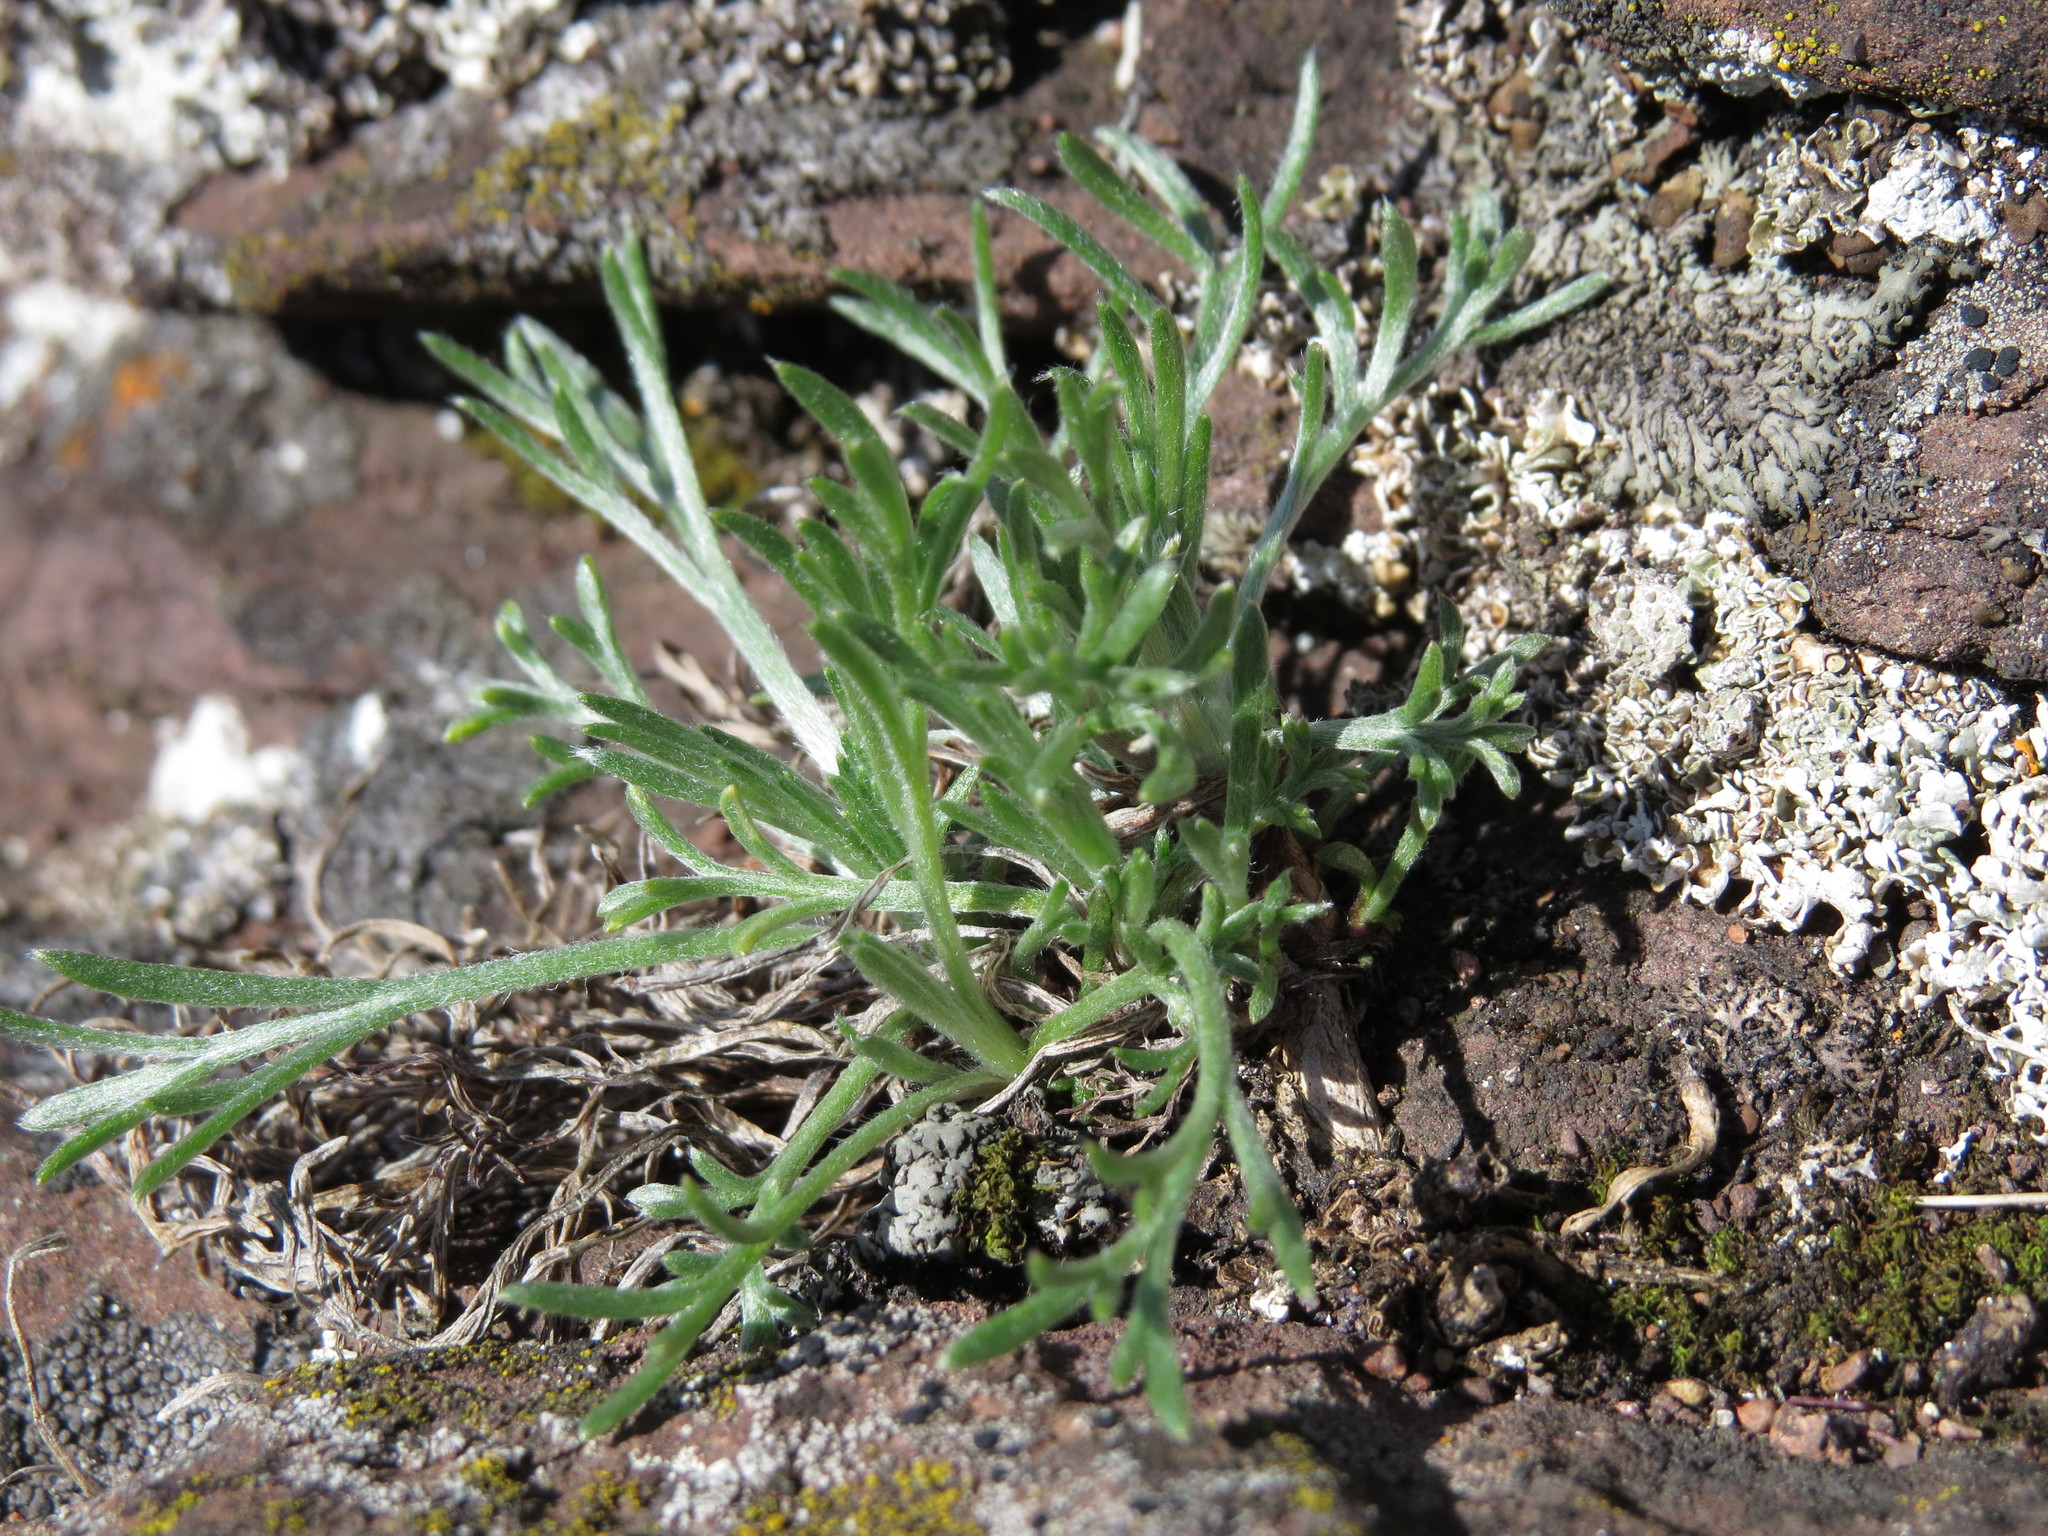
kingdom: Plantae
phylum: Tracheophyta
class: Magnoliopsida
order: Asterales
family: Asteraceae
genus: Artemisia
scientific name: Artemisia campestris
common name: Field wormwood
